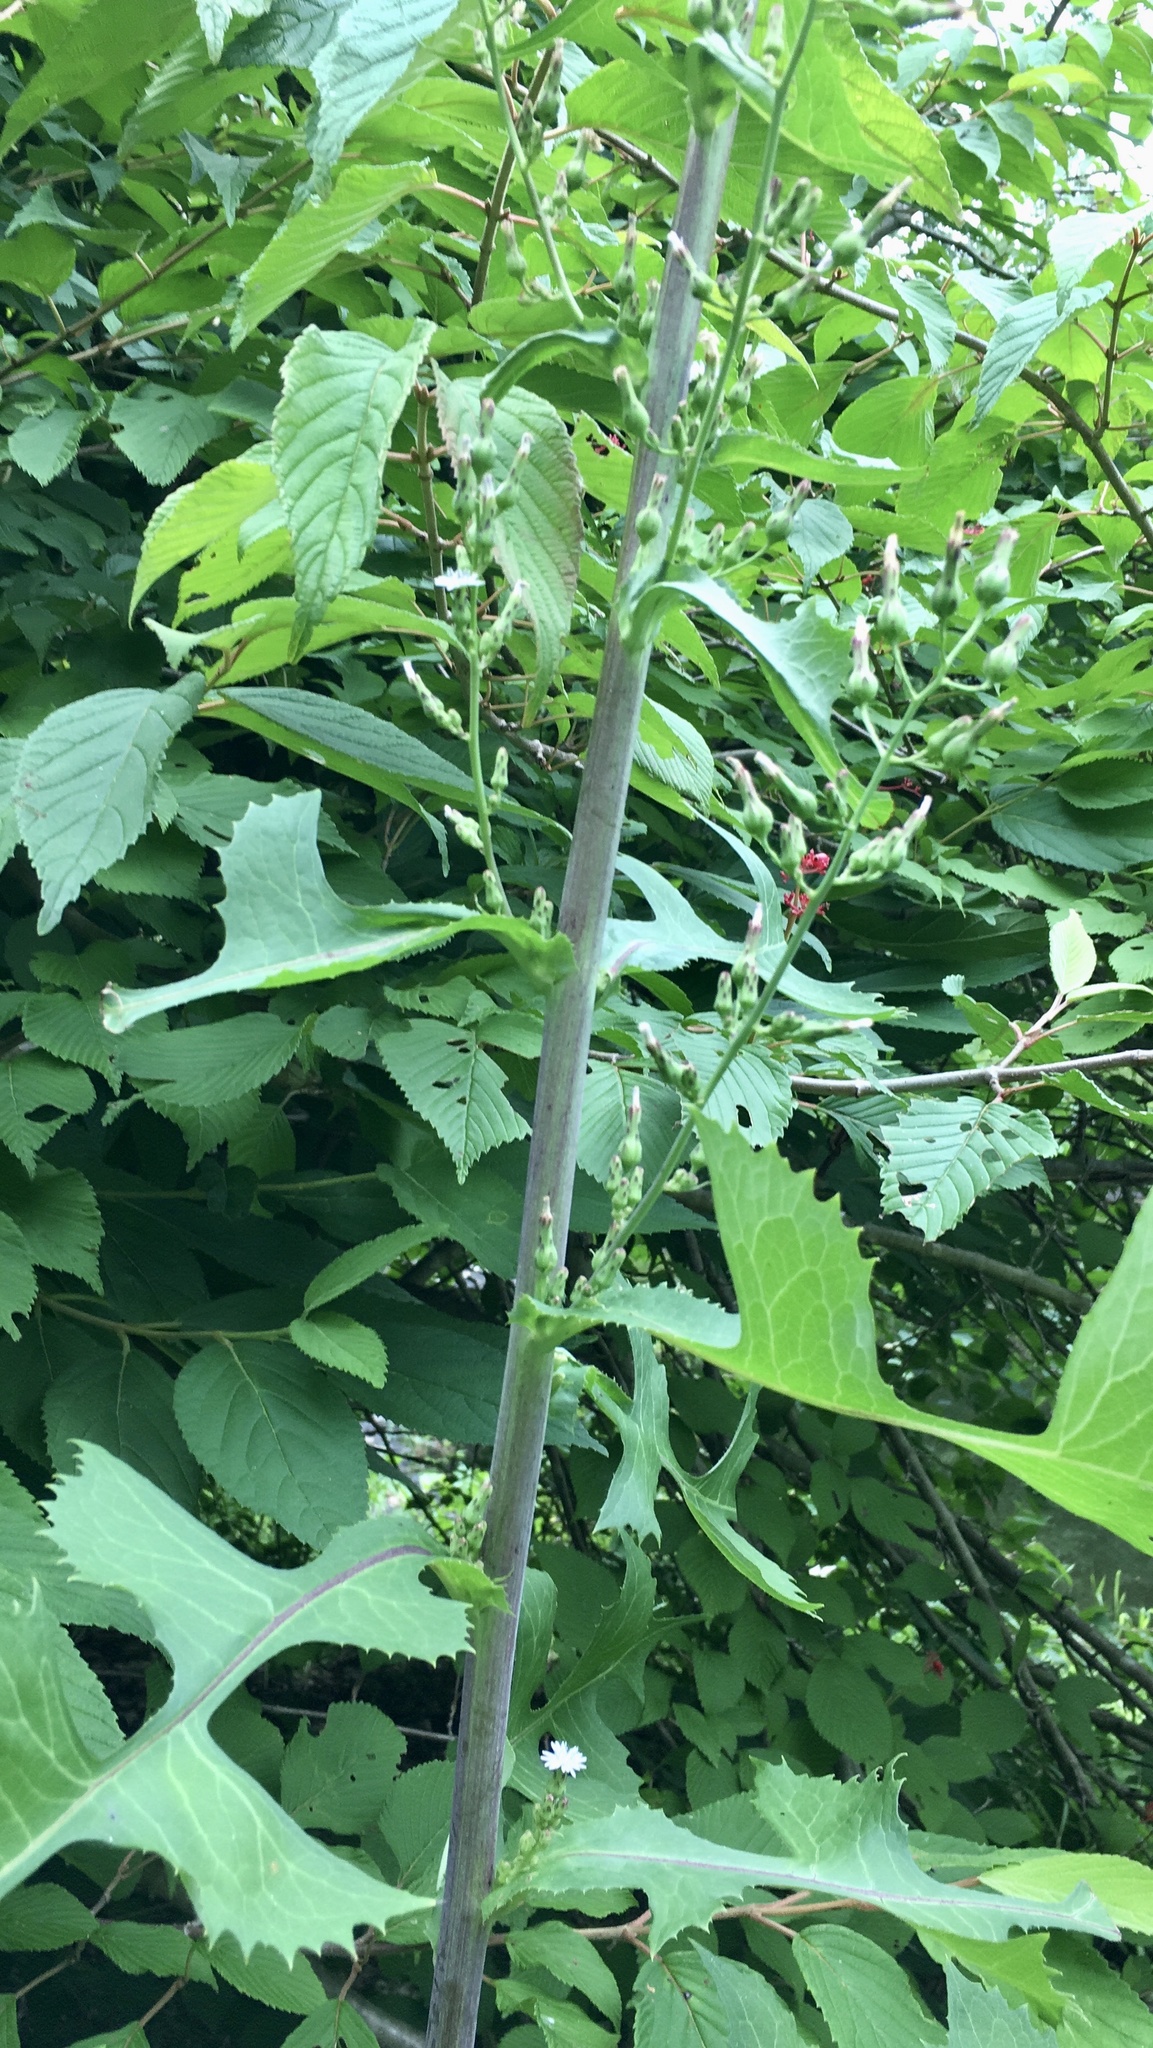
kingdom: Plantae
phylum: Tracheophyta
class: Magnoliopsida
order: Asterales
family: Asteraceae
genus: Lactuca
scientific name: Lactuca biennis
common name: Blue wood lettuce
